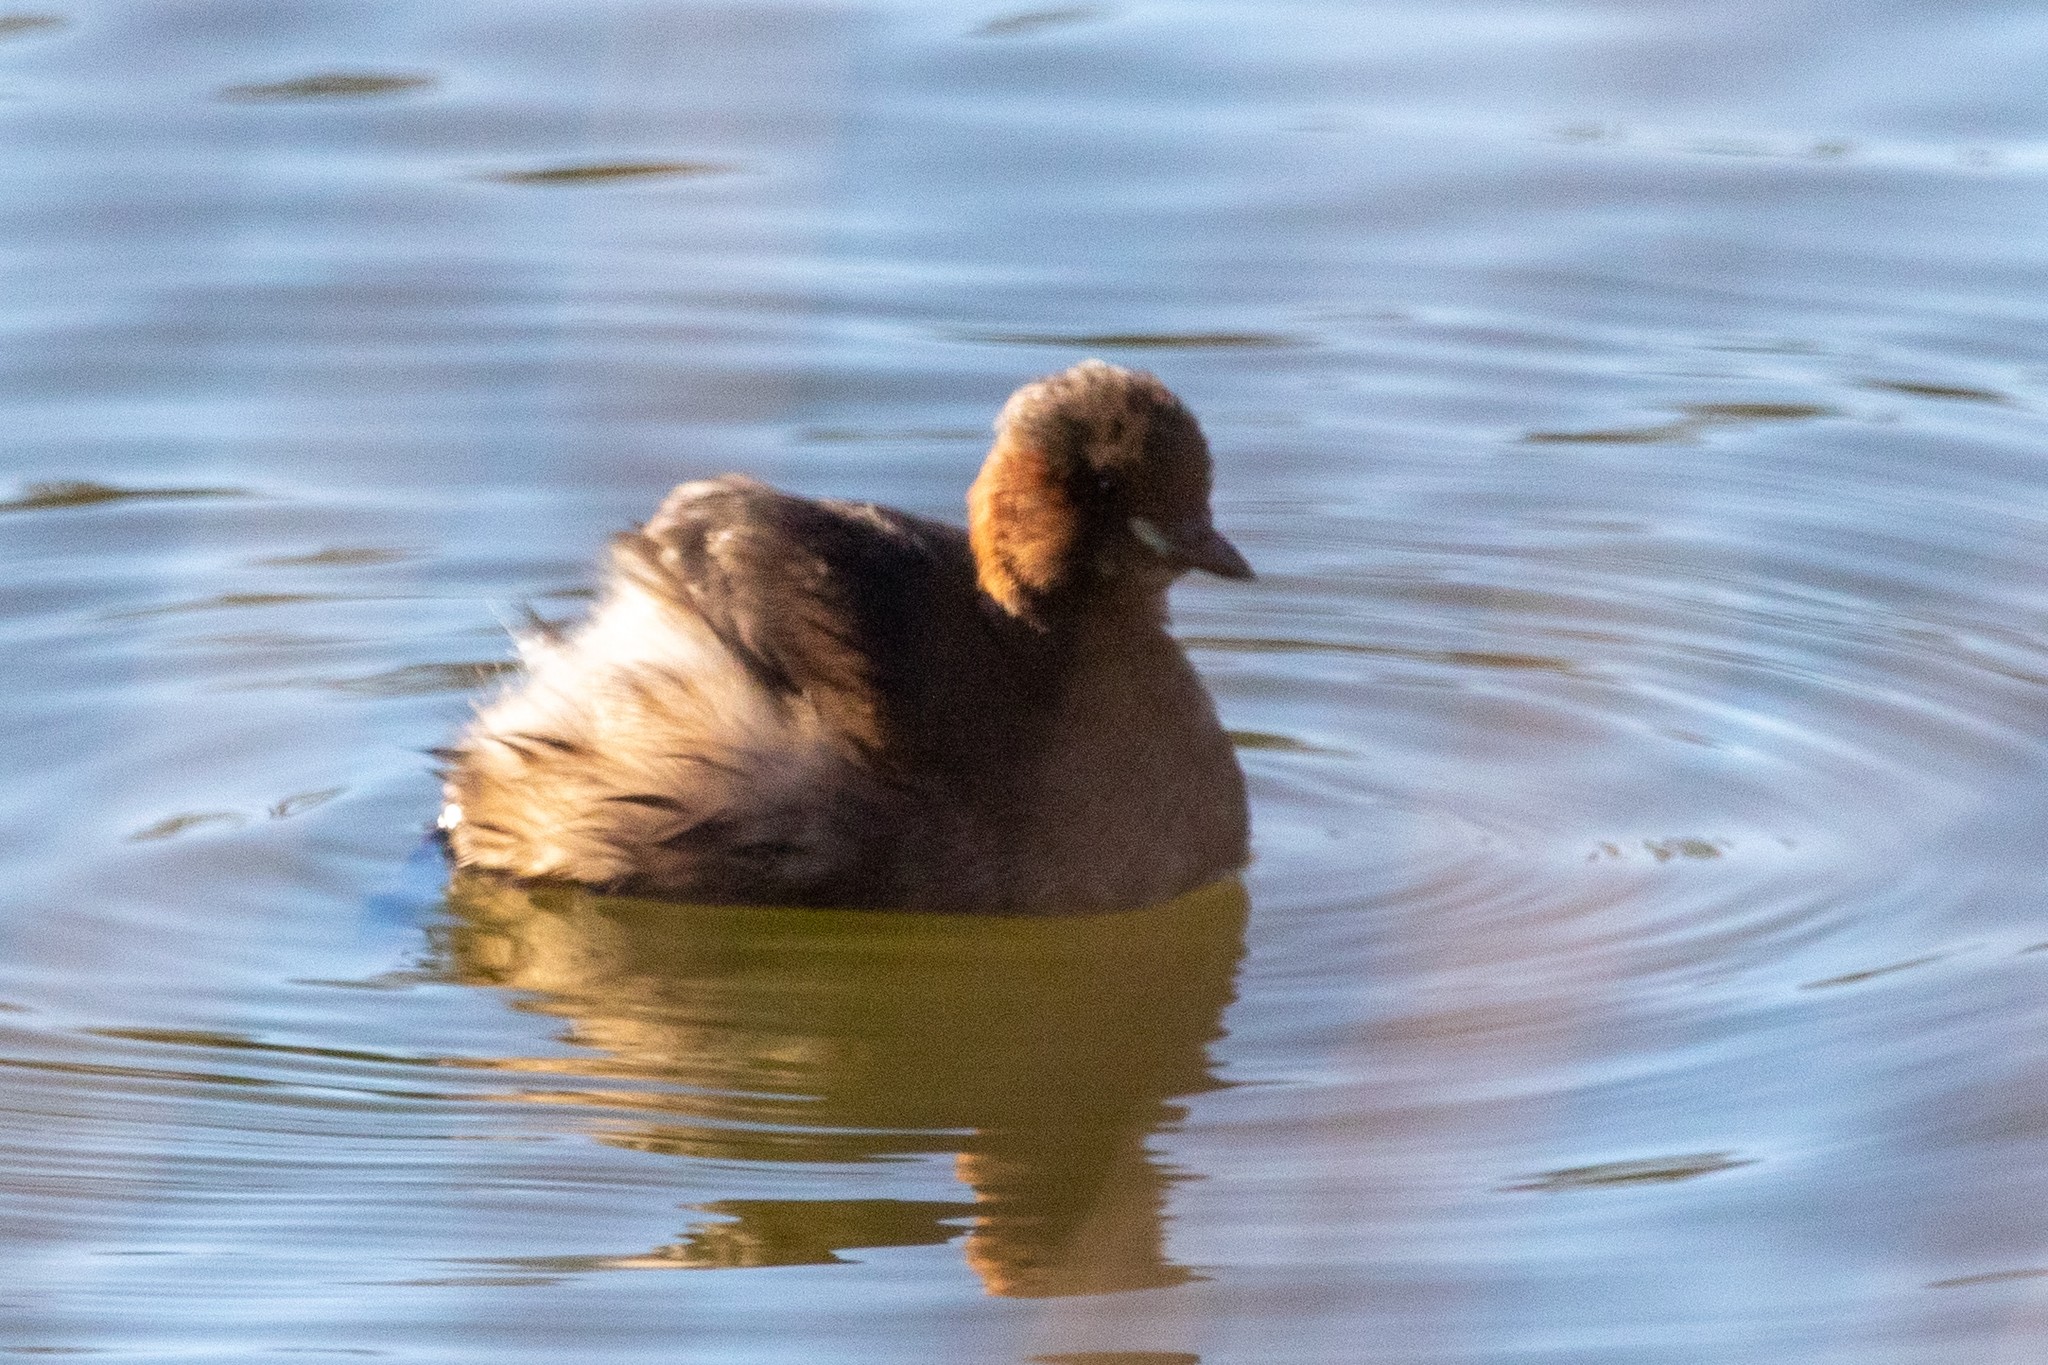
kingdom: Animalia
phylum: Chordata
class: Aves
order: Podicipediformes
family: Podicipedidae
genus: Tachybaptus
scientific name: Tachybaptus ruficollis
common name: Little grebe
